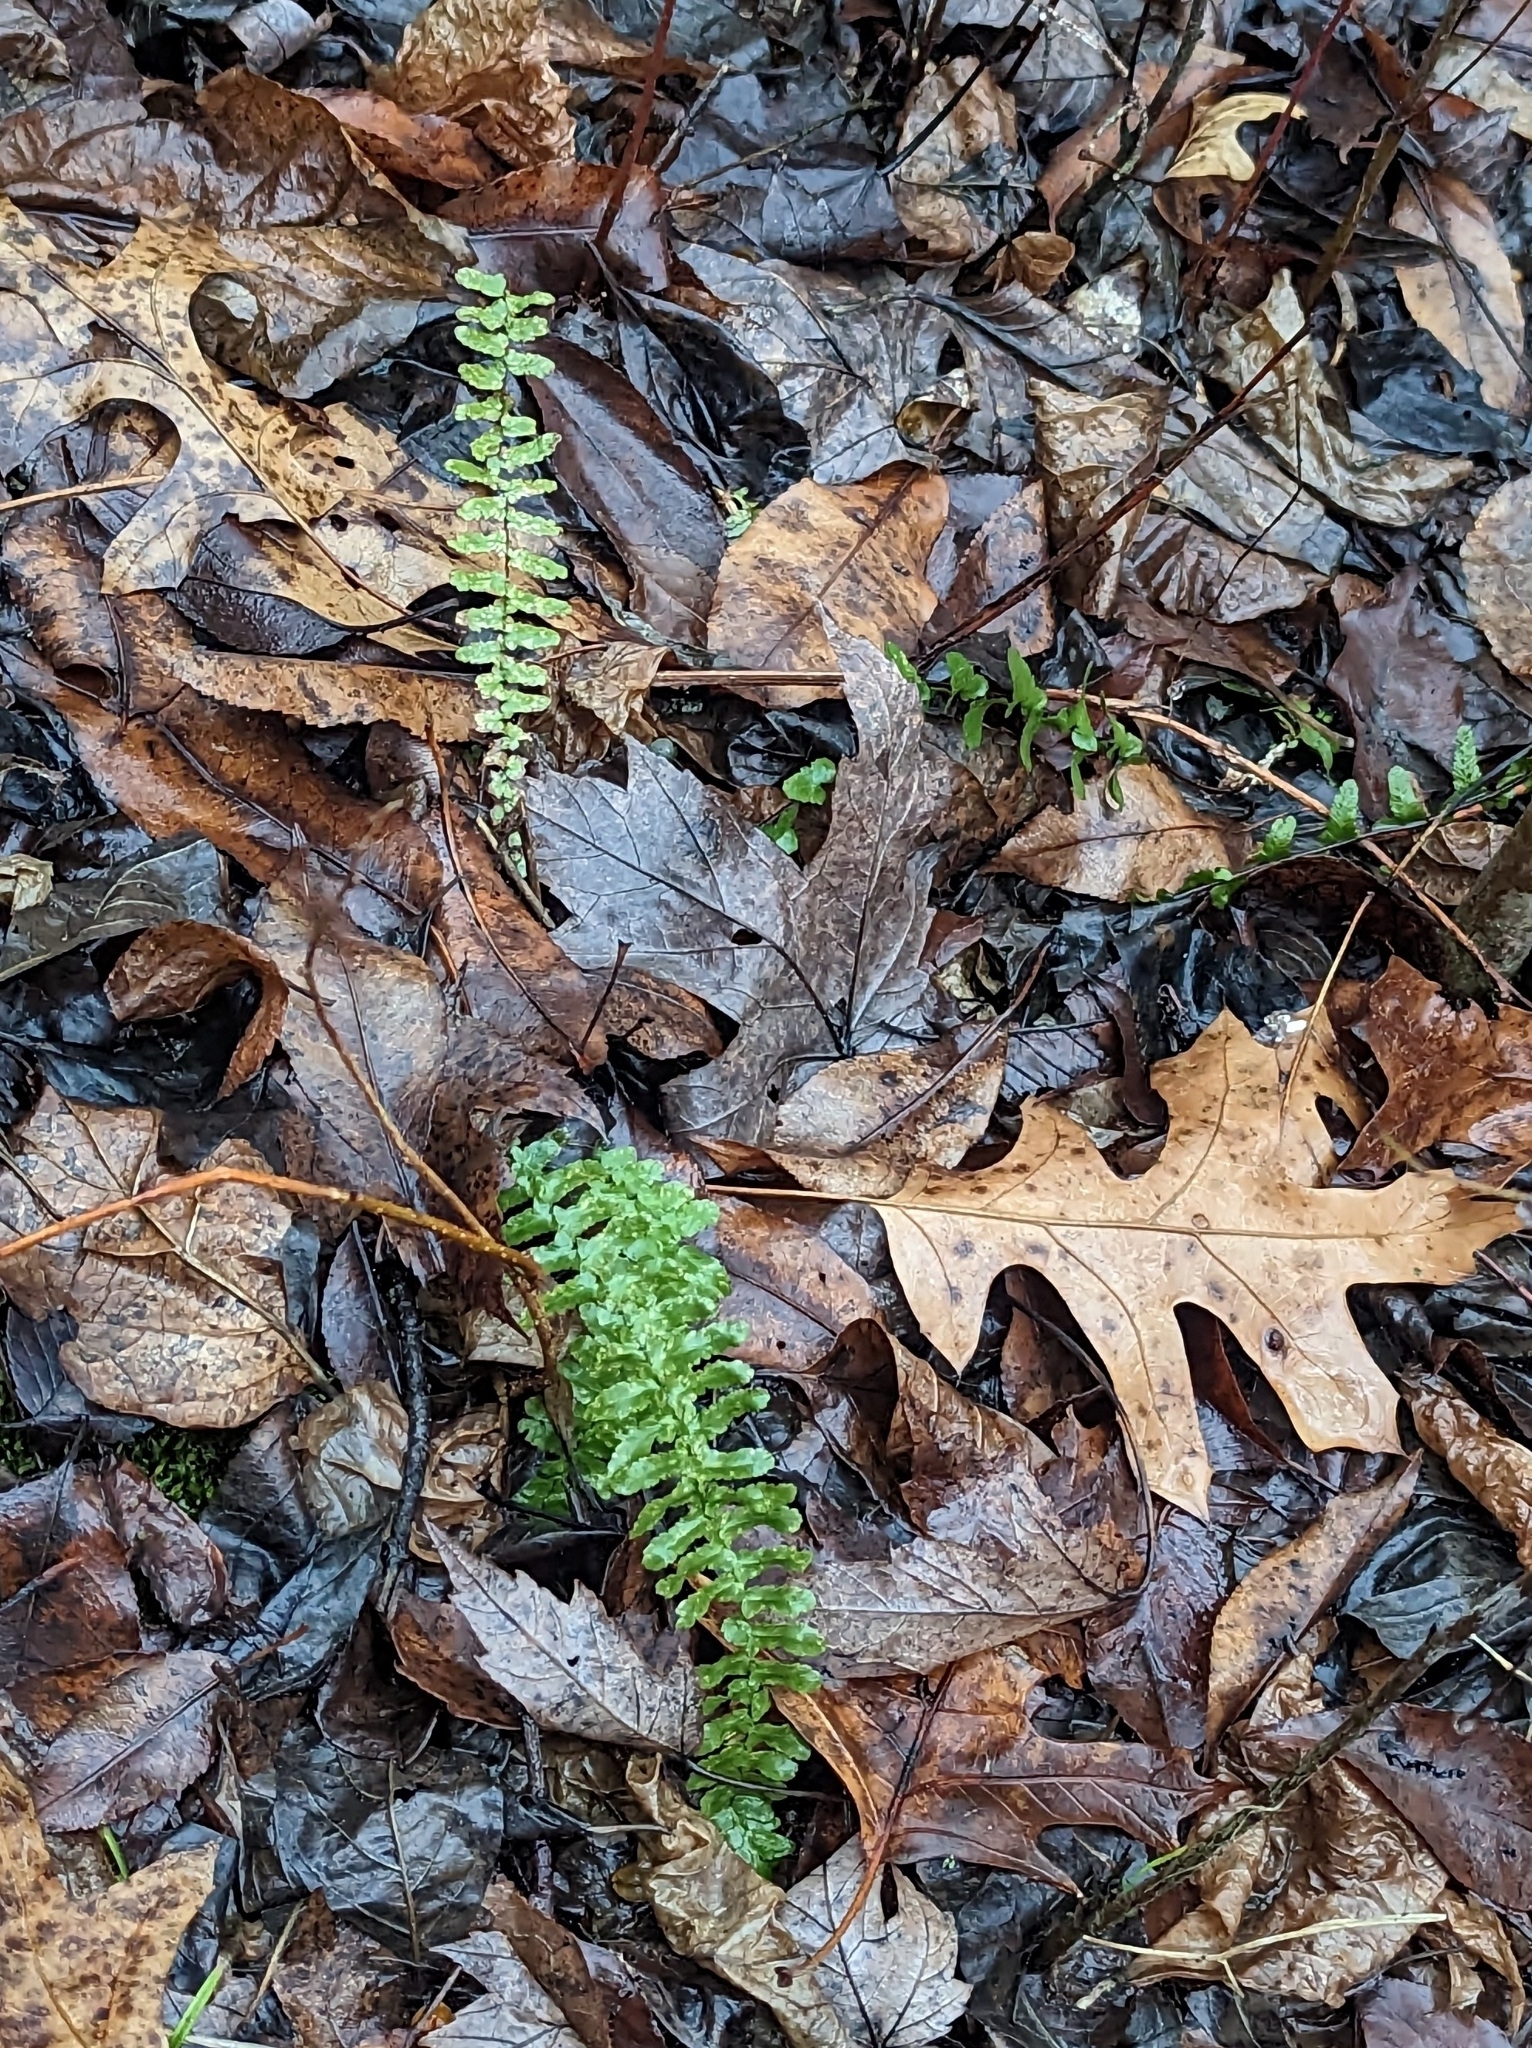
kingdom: Plantae
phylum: Tracheophyta
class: Polypodiopsida
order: Polypodiales
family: Aspleniaceae
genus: Asplenium
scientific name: Asplenium platyneuron
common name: Ebony spleenwort
